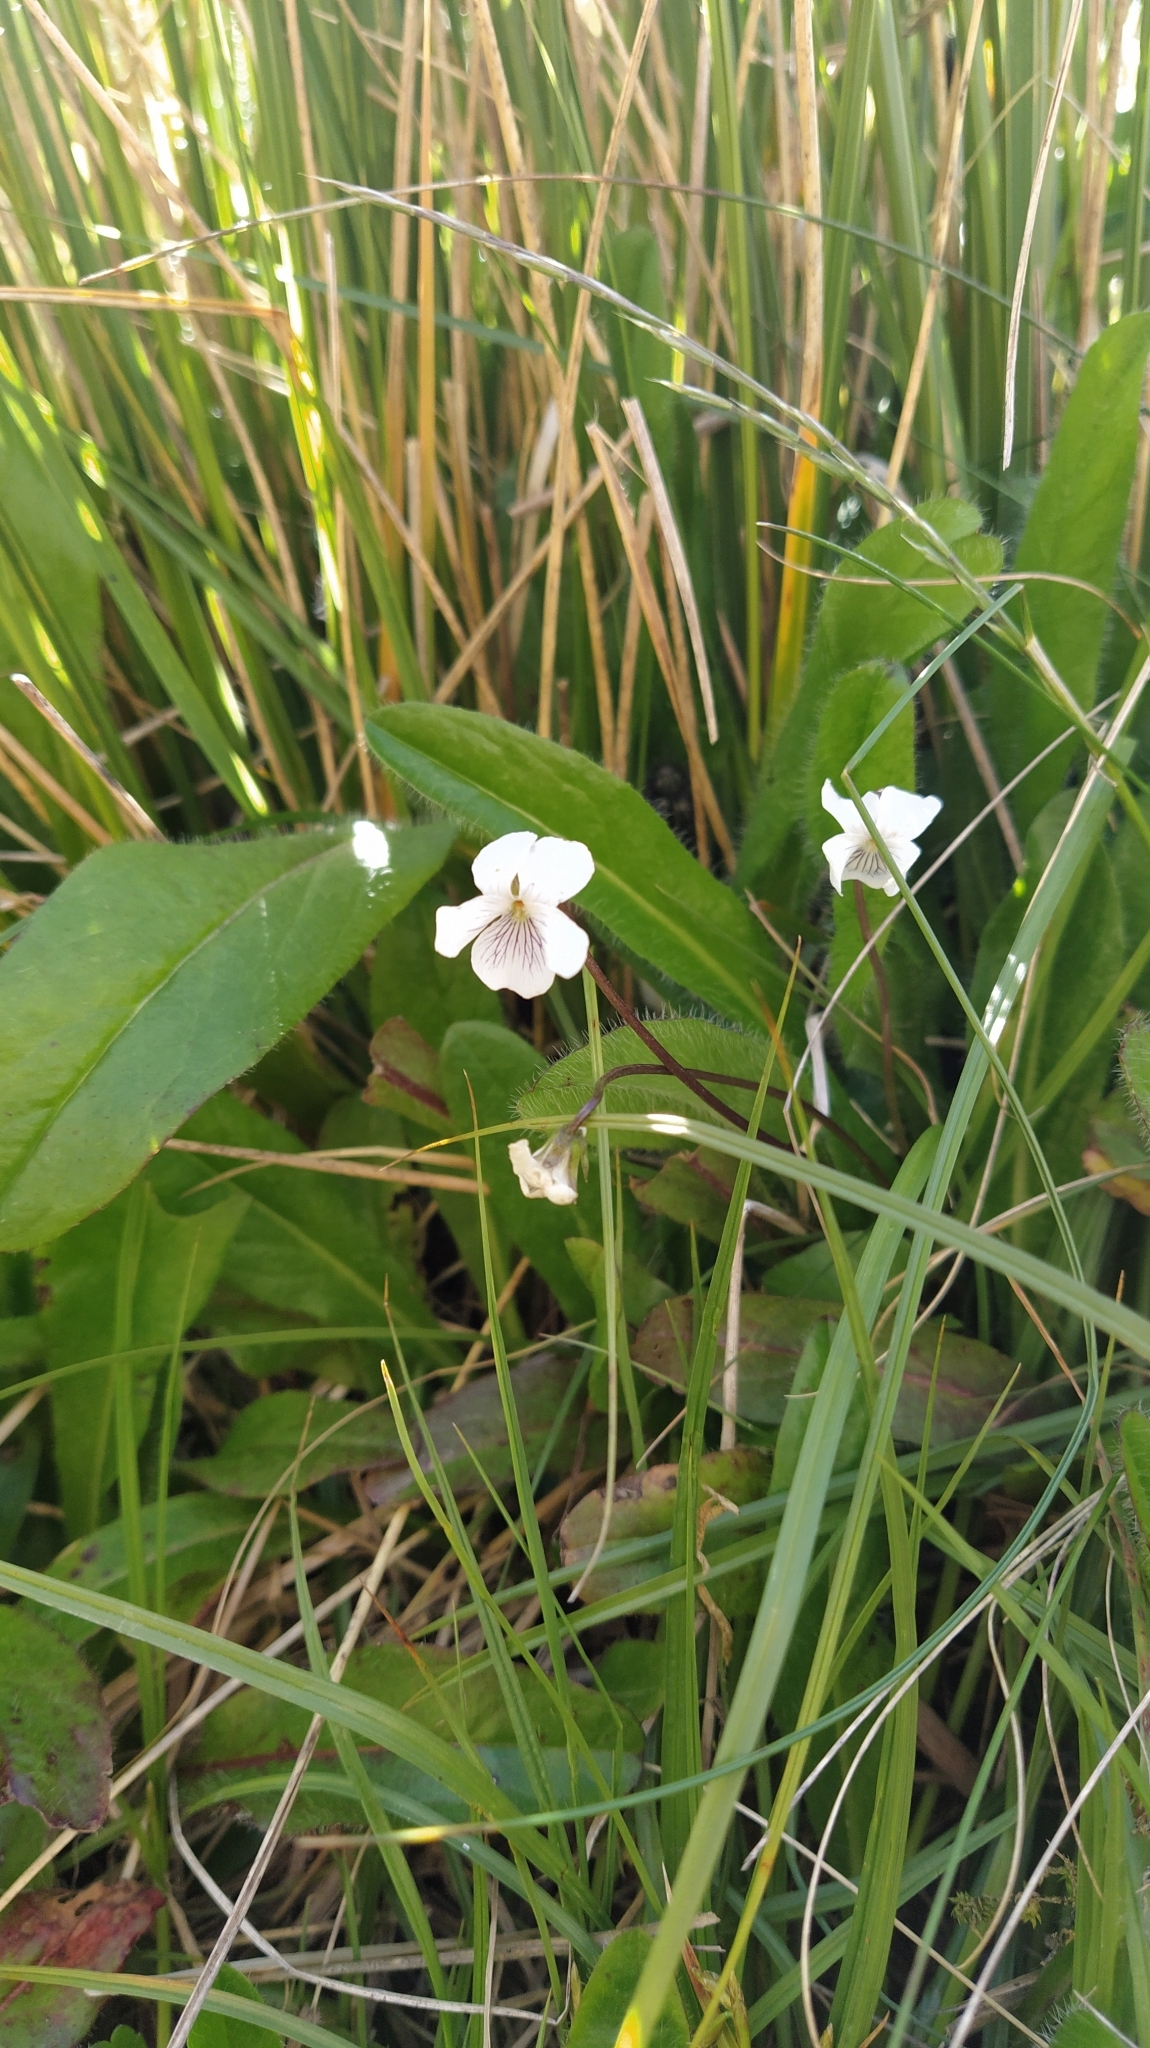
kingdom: Plantae
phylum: Tracheophyta
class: Magnoliopsida
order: Malpighiales
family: Violaceae
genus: Viola
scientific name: Viola cunninghamii
